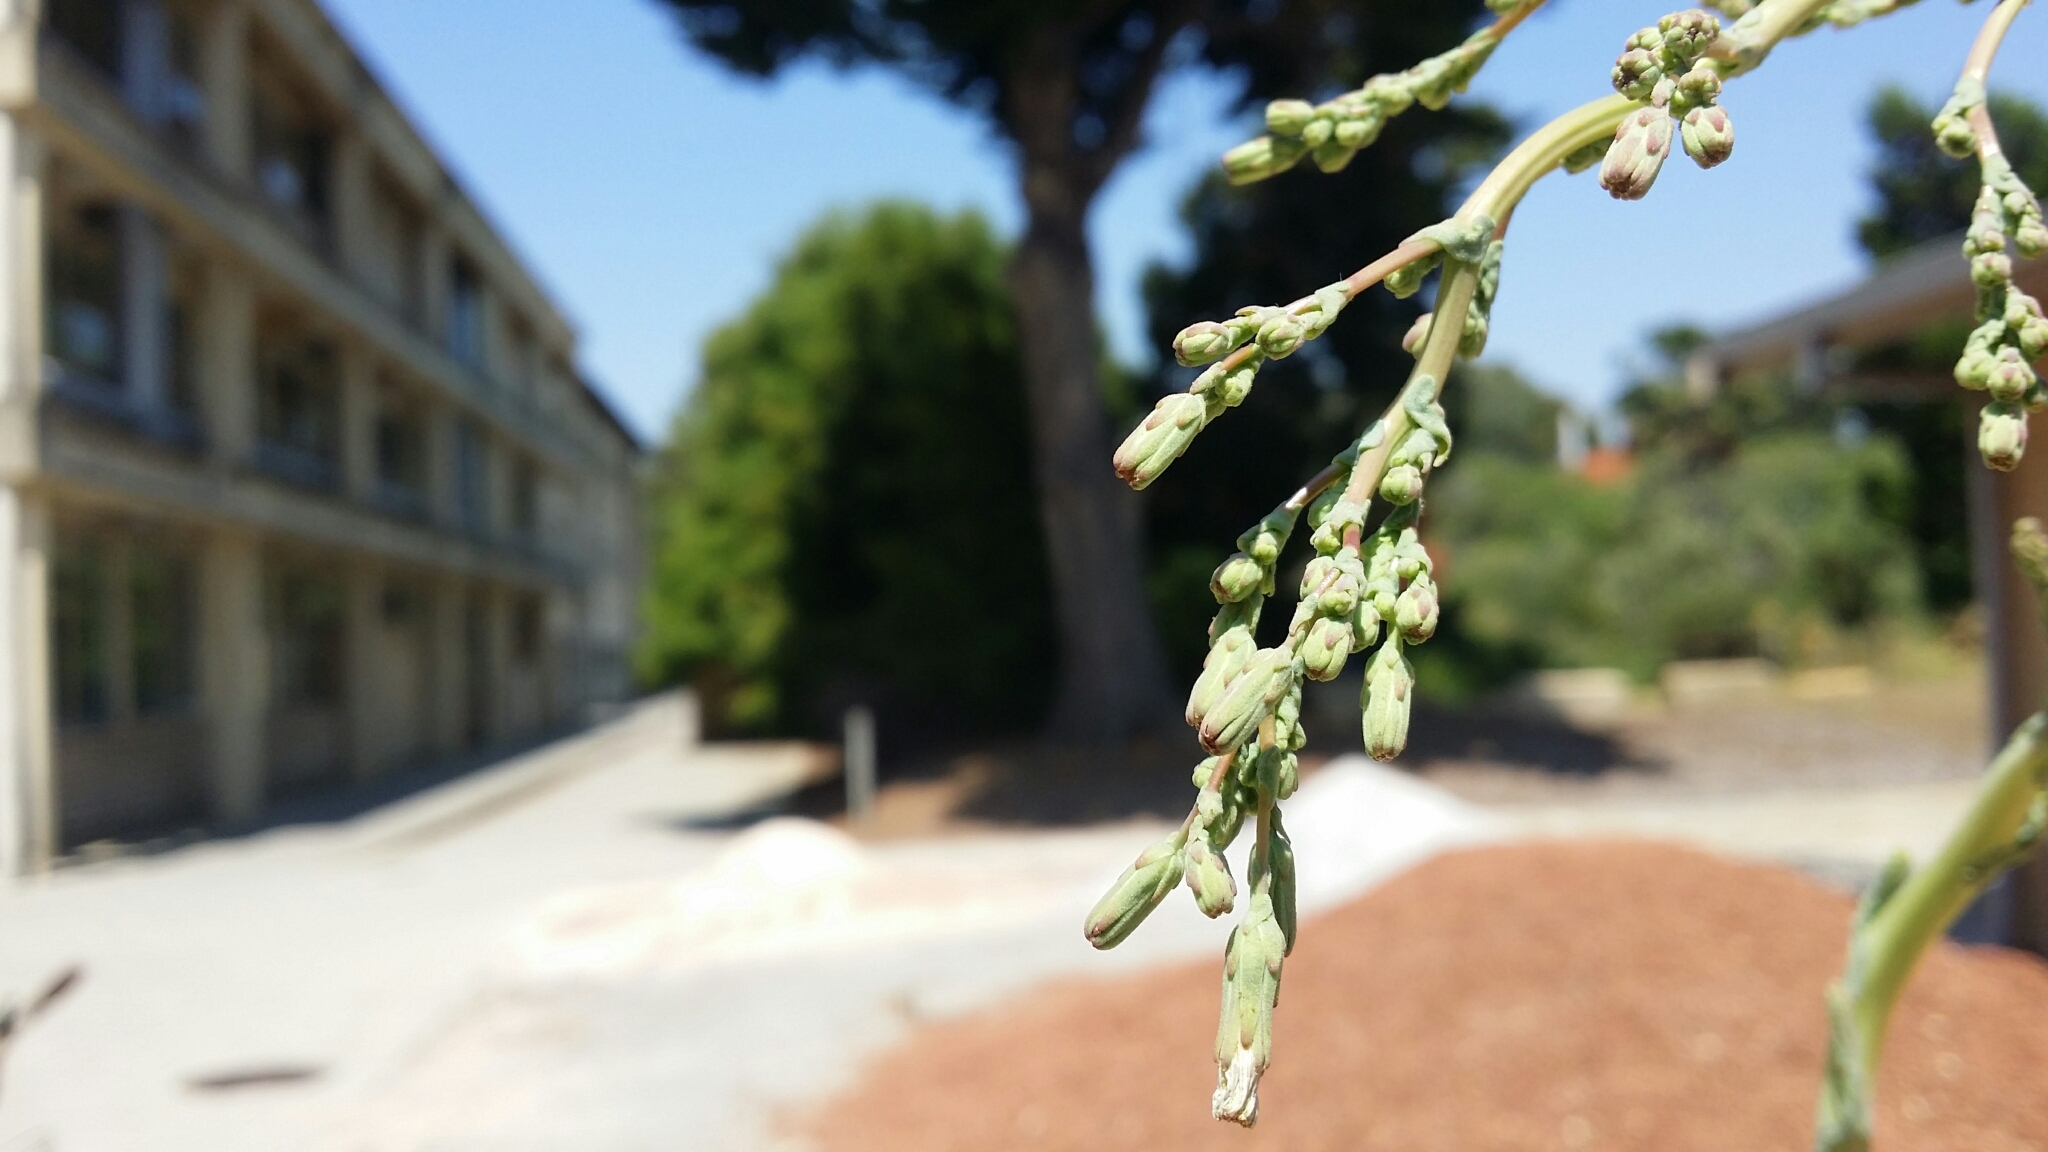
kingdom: Plantae
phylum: Tracheophyta
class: Magnoliopsida
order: Asterales
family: Asteraceae
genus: Lactuca
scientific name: Lactuca serriola
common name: Prickly lettuce
